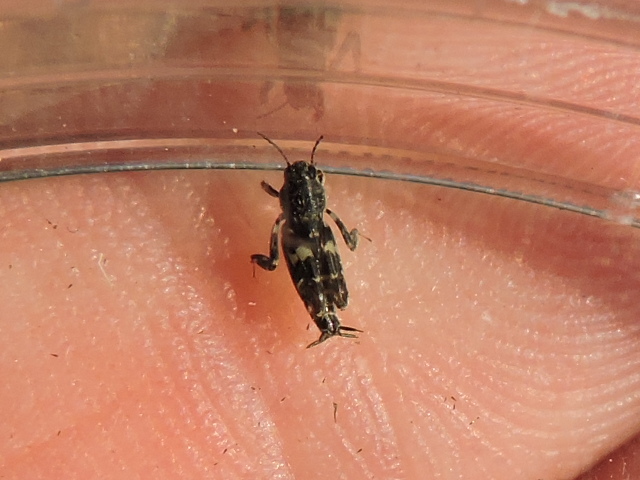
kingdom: Animalia
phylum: Arthropoda
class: Insecta
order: Orthoptera
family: Tridactylidae
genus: Ellipes
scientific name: Ellipes minuta
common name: Minute pygmy locust
